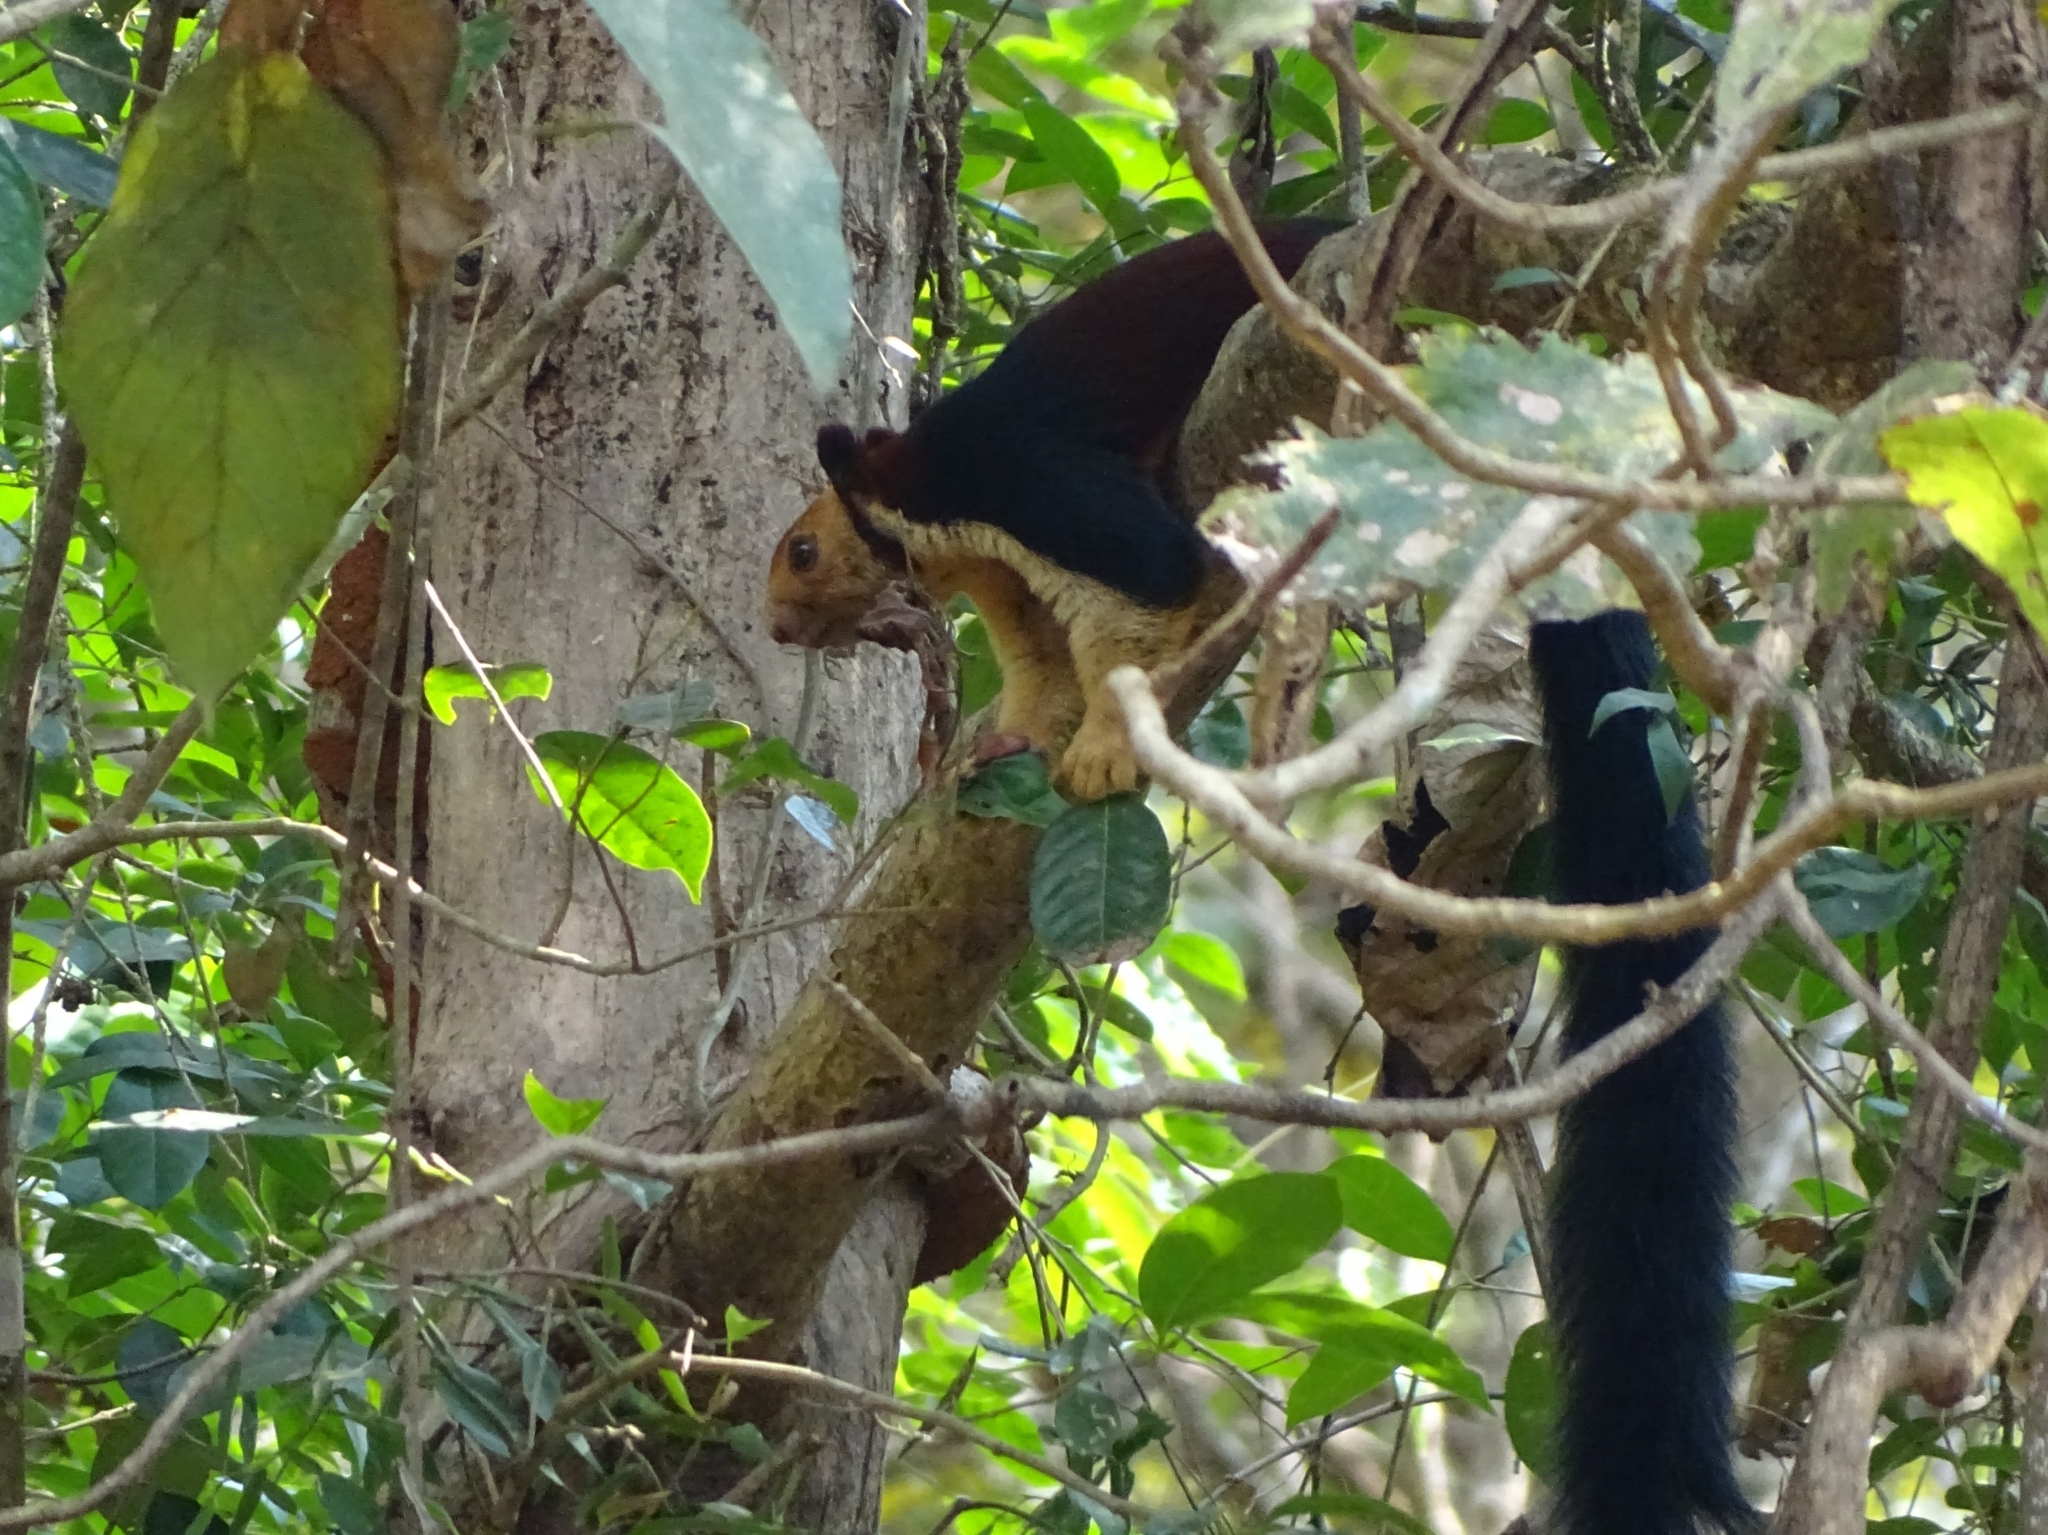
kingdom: Animalia
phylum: Chordata
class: Mammalia
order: Rodentia
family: Sciuridae
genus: Ratufa
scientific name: Ratufa indica
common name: Indian giant squirrel
